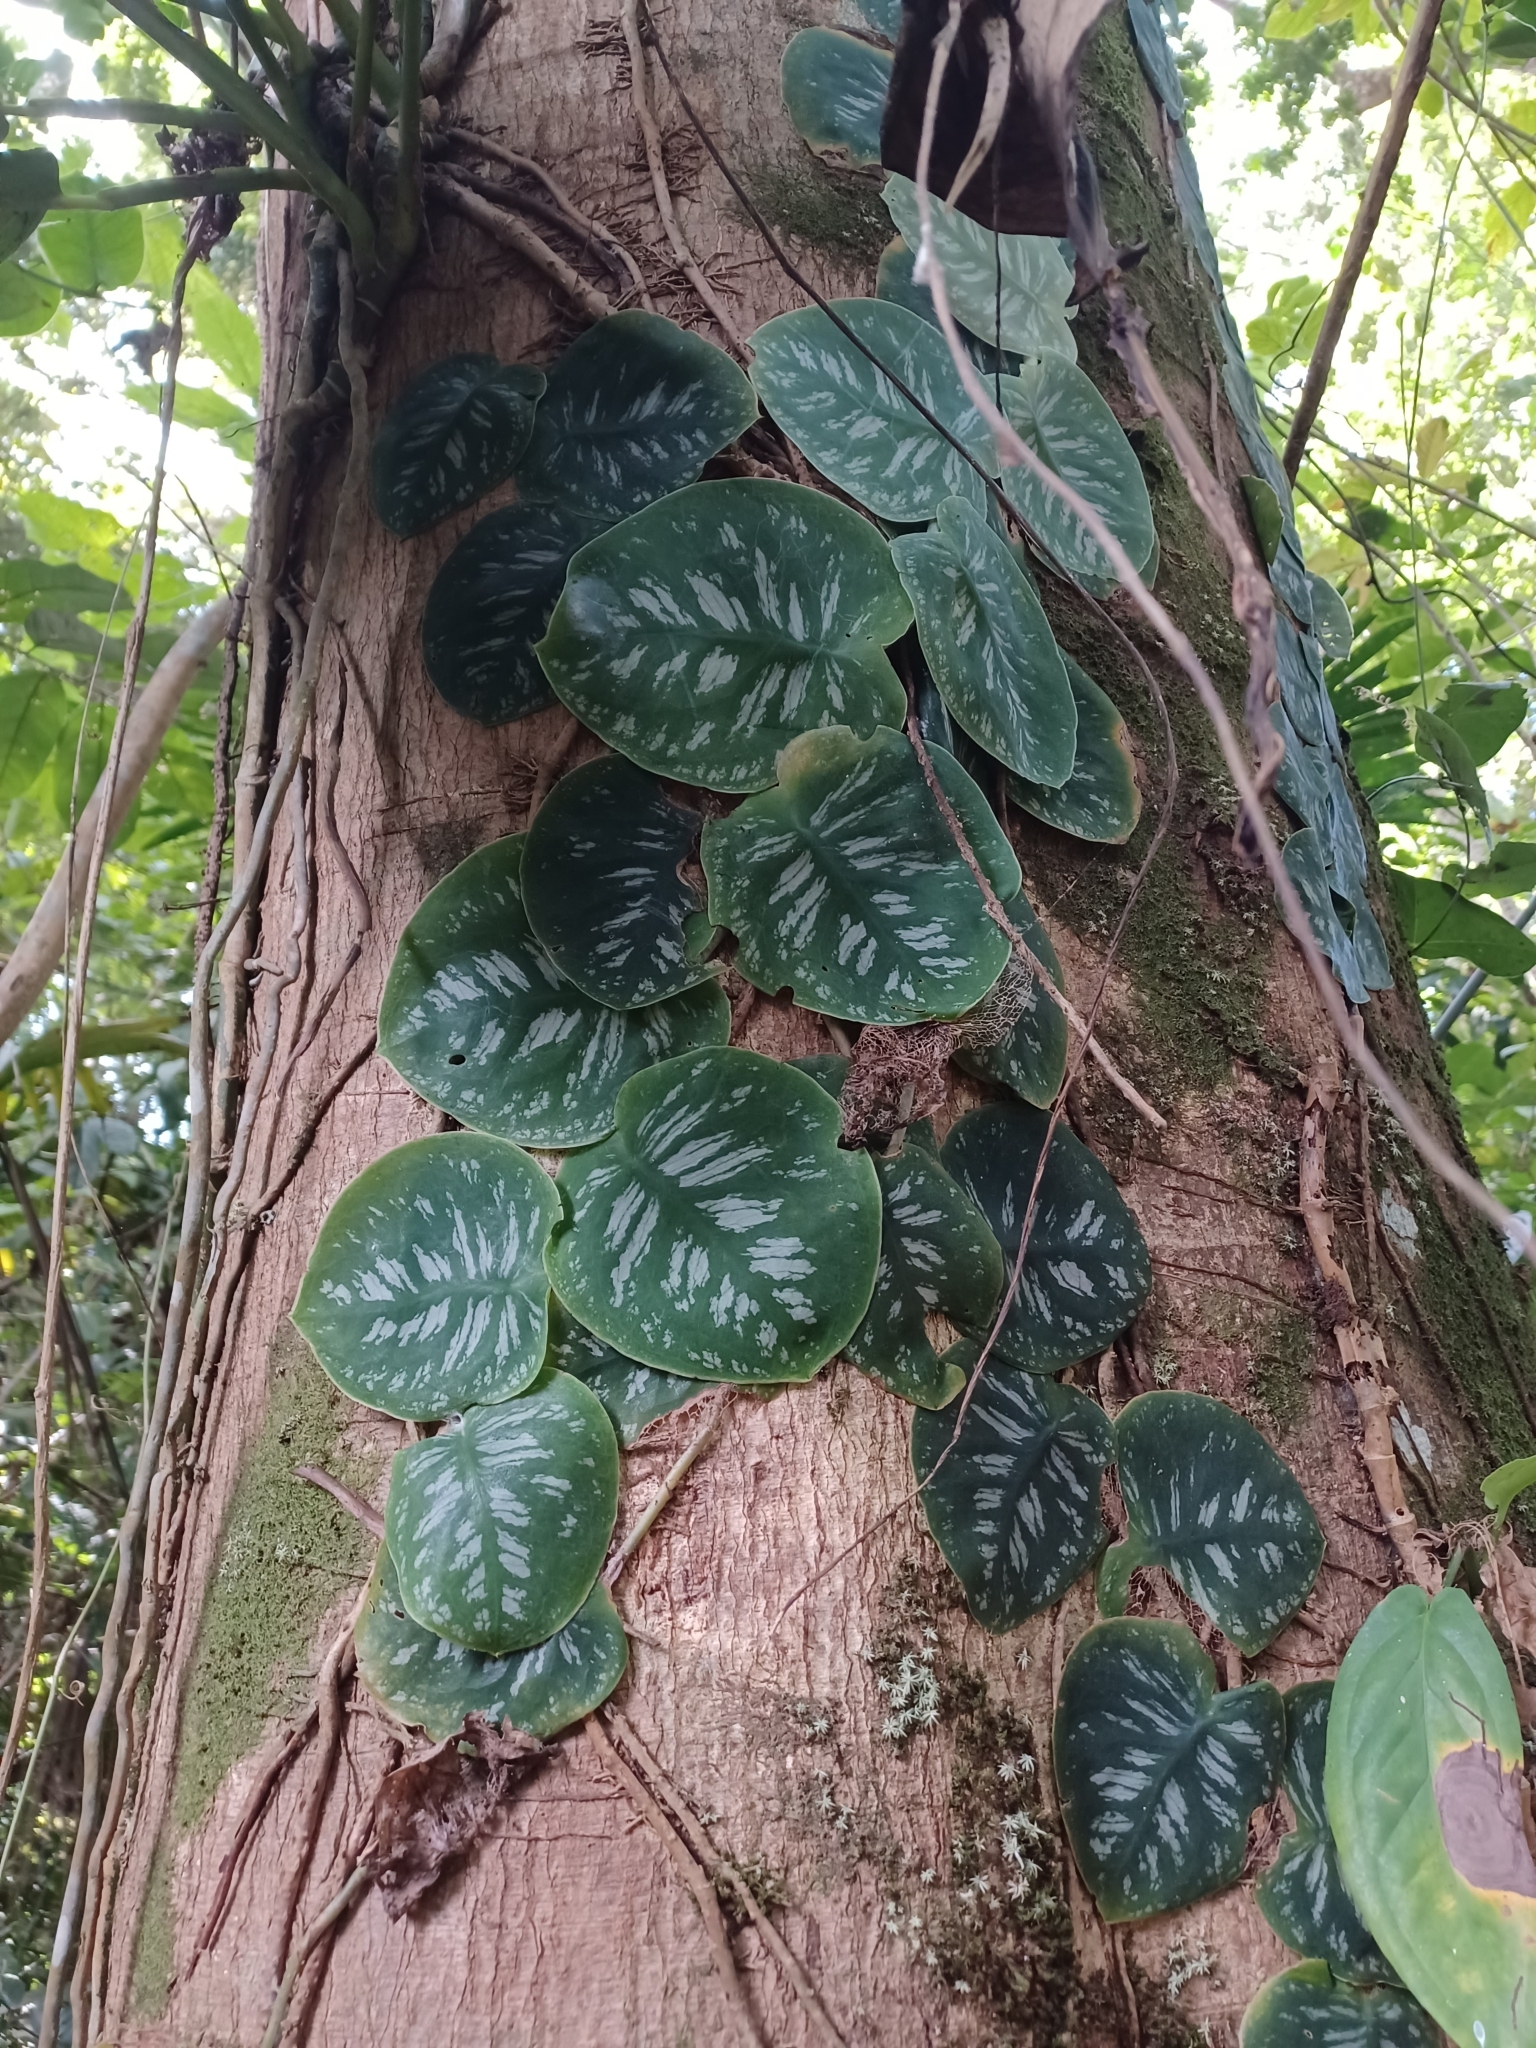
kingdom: Plantae
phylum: Tracheophyta
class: Liliopsida
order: Alismatales
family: Araceae
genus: Monstera
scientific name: Monstera tuberculata
